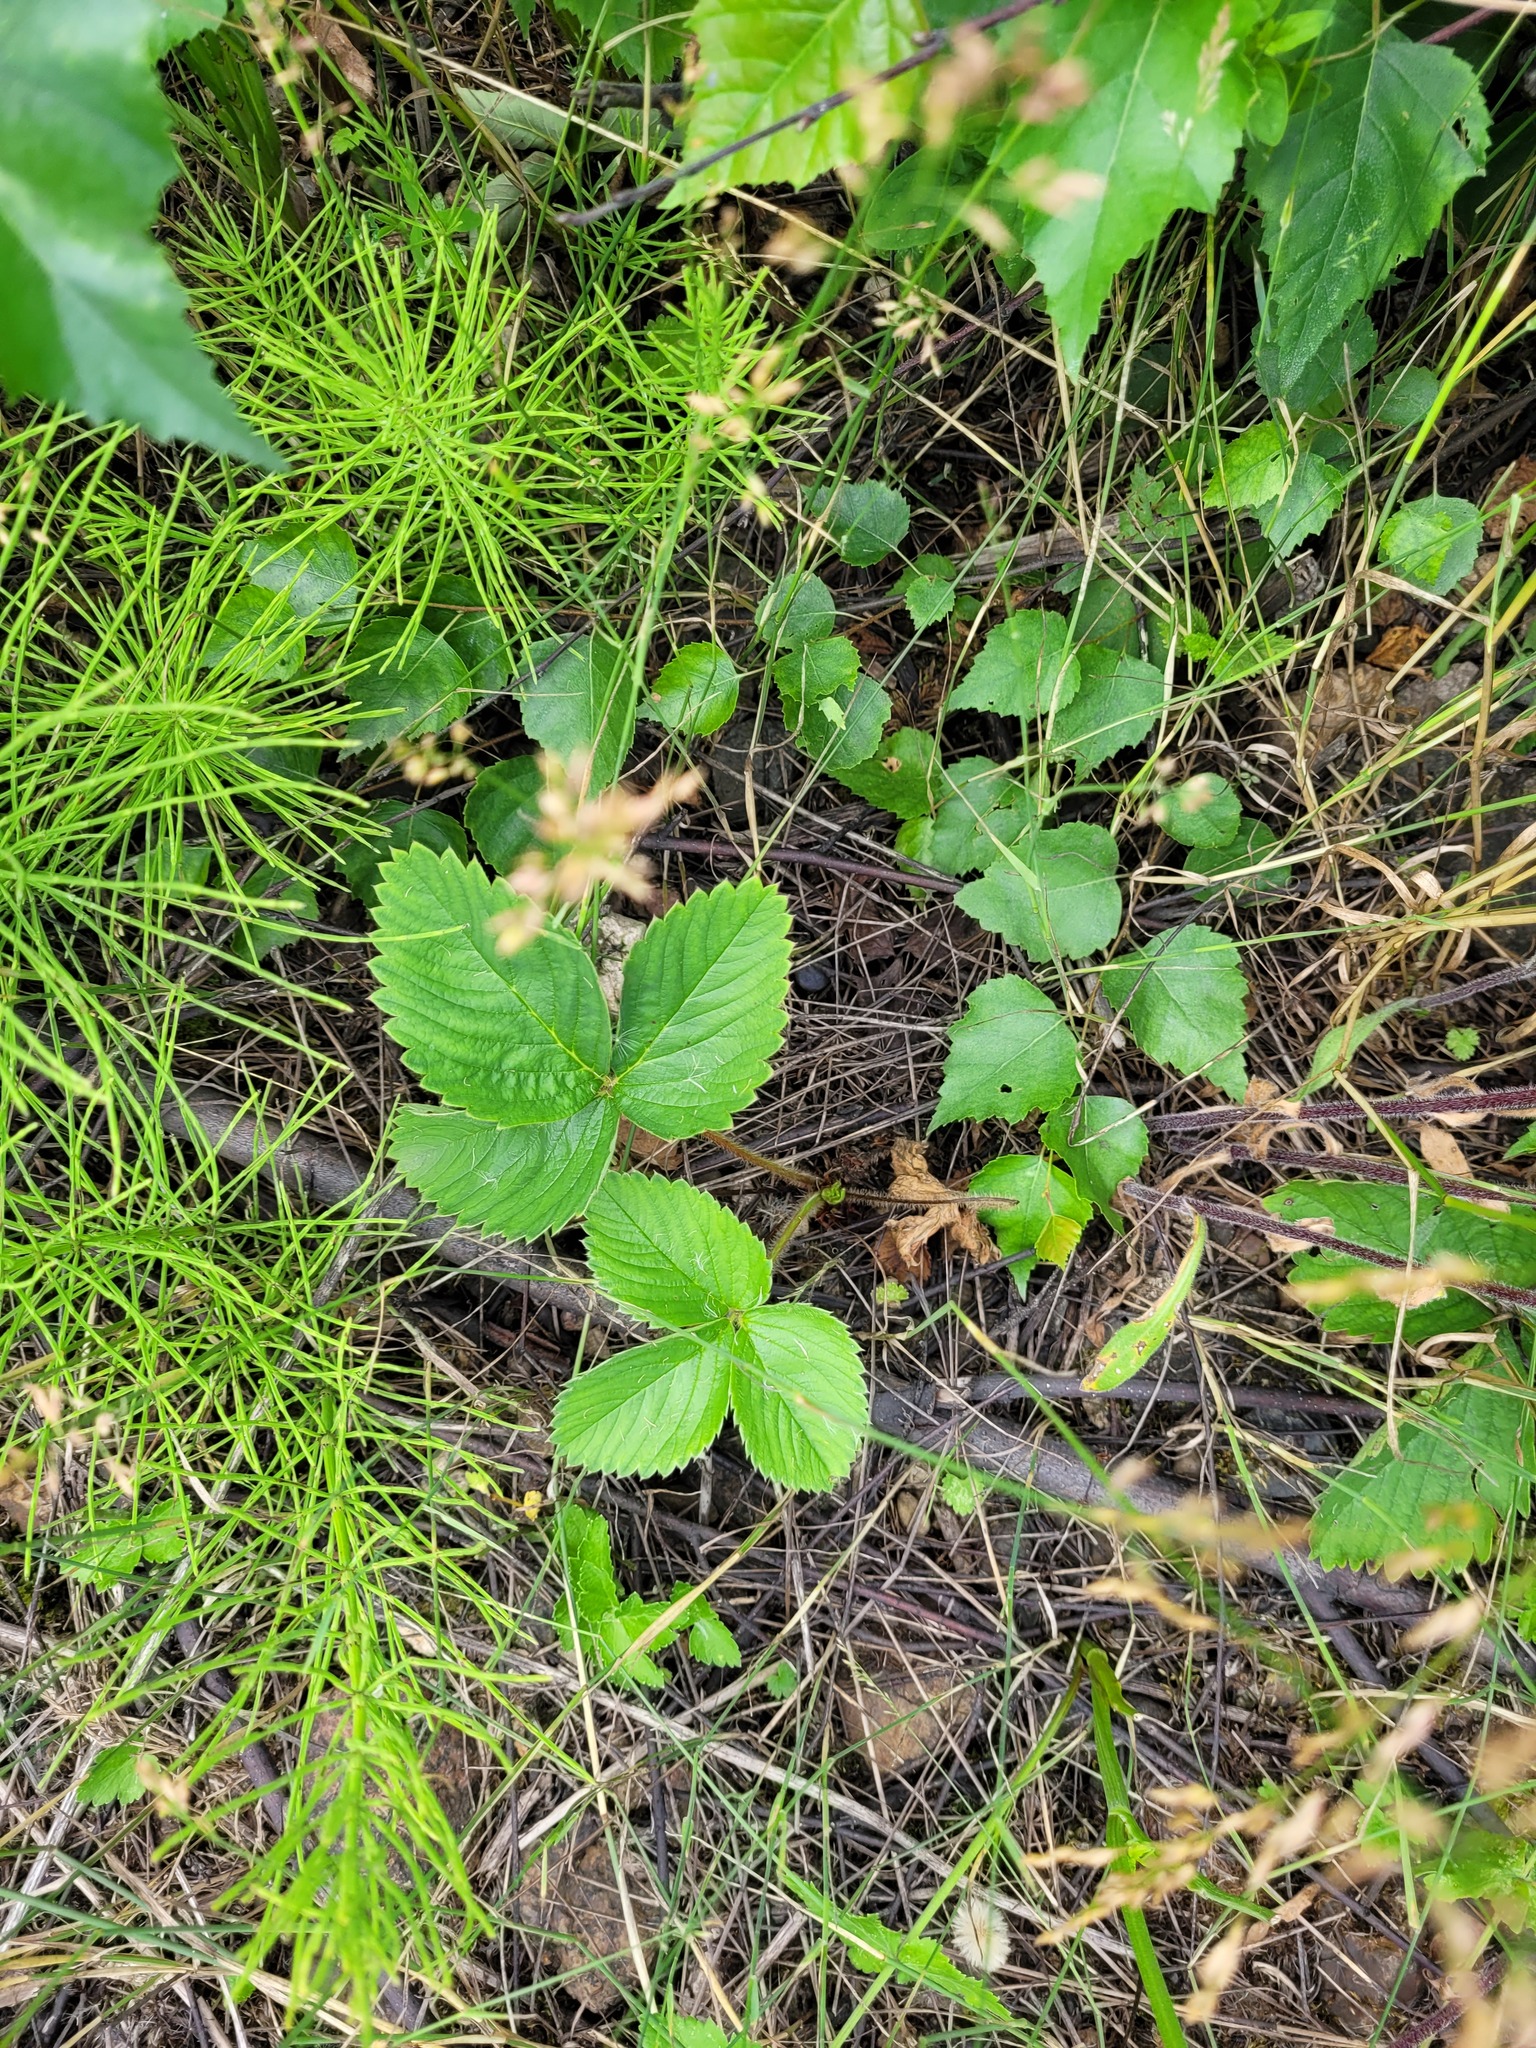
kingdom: Plantae
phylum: Tracheophyta
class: Magnoliopsida
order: Rosales
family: Rosaceae
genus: Fragaria
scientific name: Fragaria ananassa
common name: Garden strawberry
